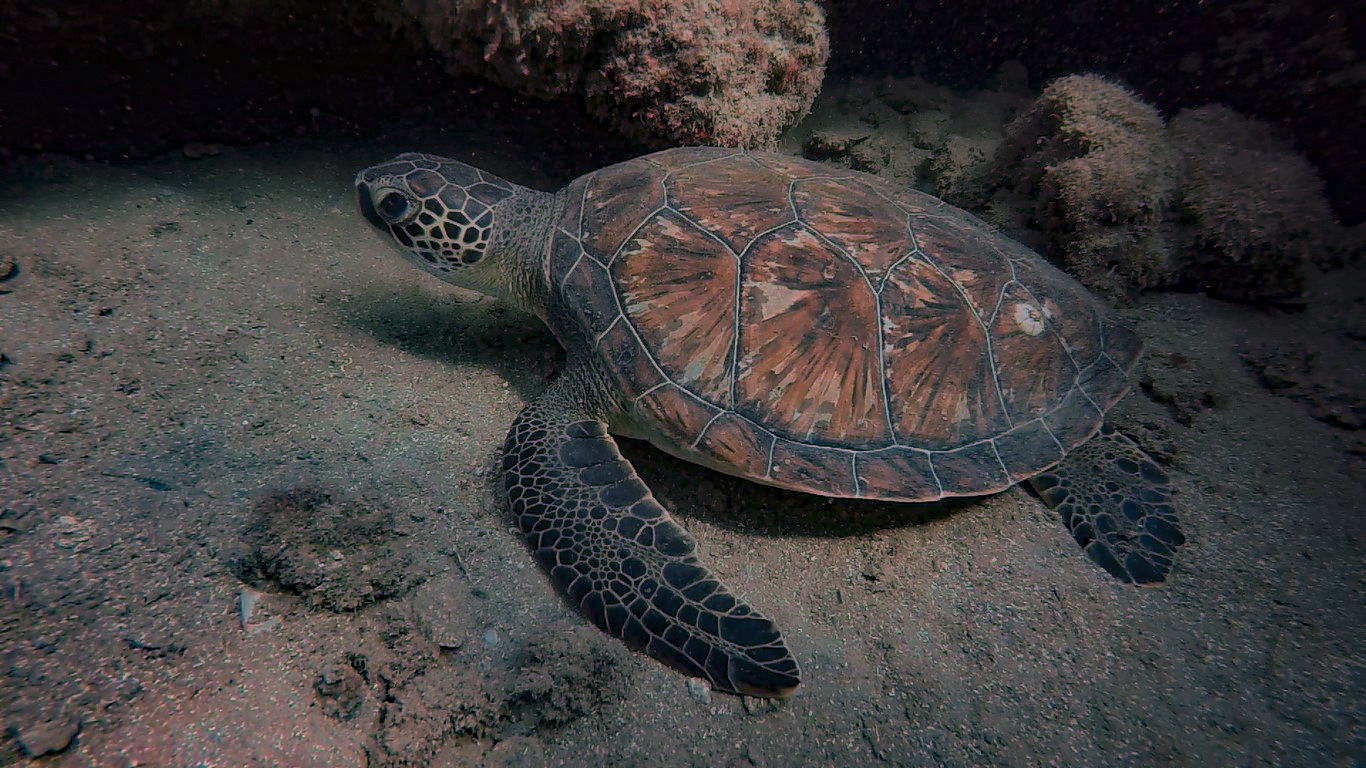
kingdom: Animalia
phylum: Chordata
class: Testudines
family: Cheloniidae
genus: Chelonia
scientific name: Chelonia mydas
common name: Green turtle
